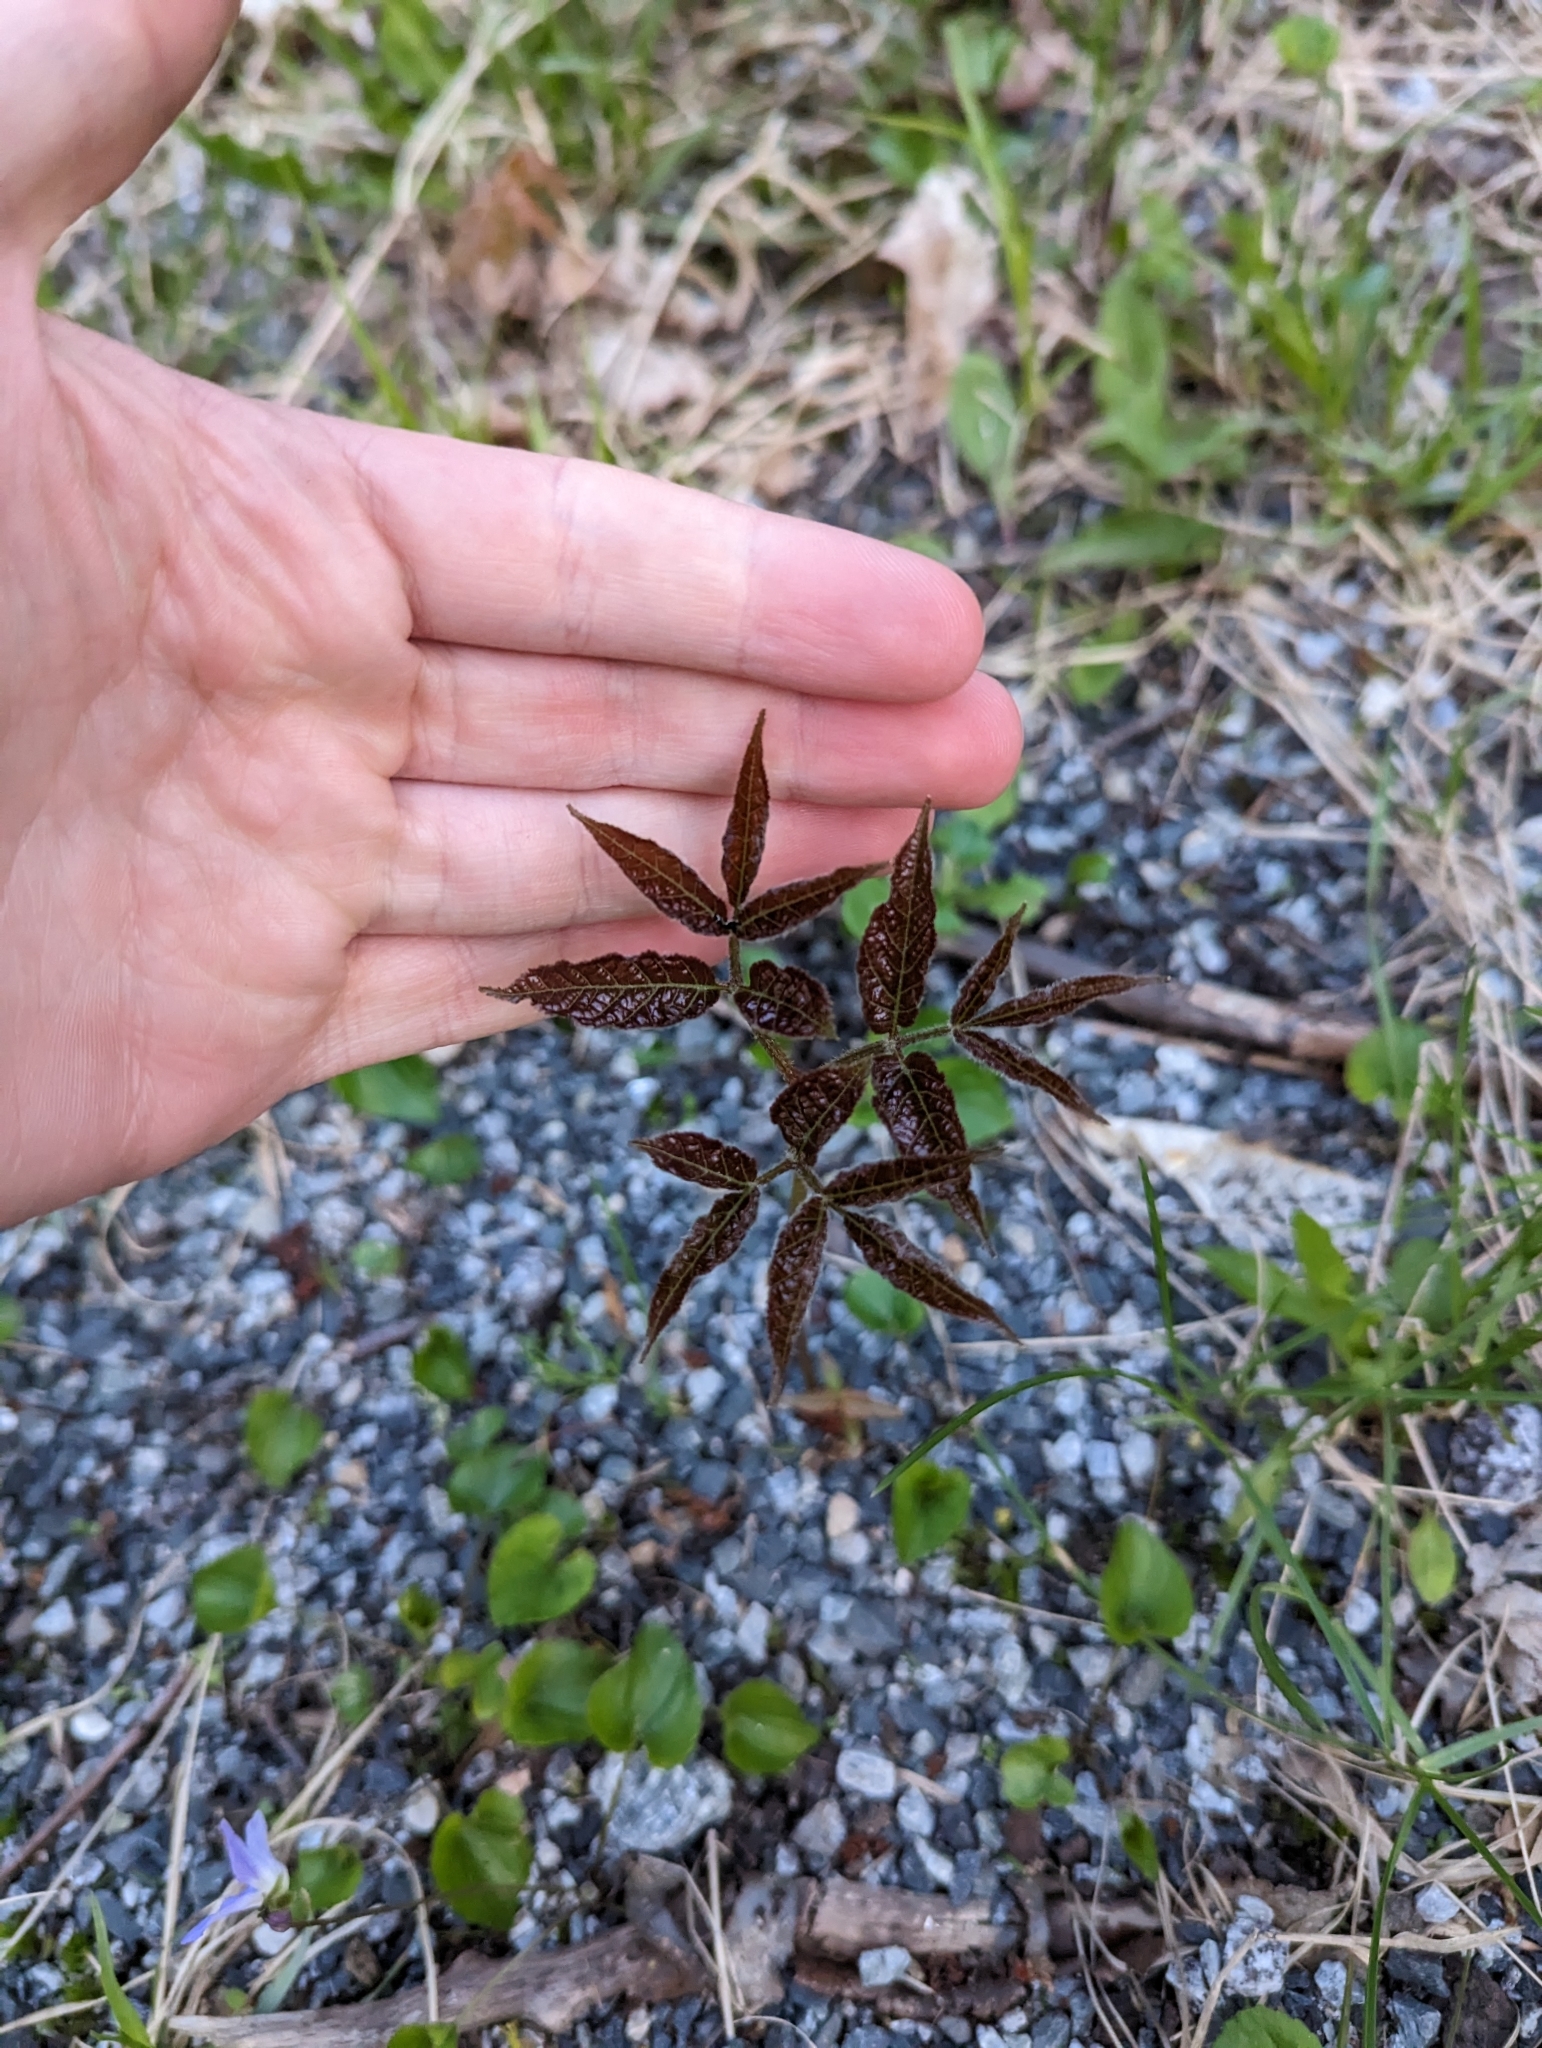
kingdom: Plantae
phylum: Tracheophyta
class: Magnoliopsida
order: Apiales
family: Araliaceae
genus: Aralia
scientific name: Aralia nudicaulis
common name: Wild sarsaparilla
